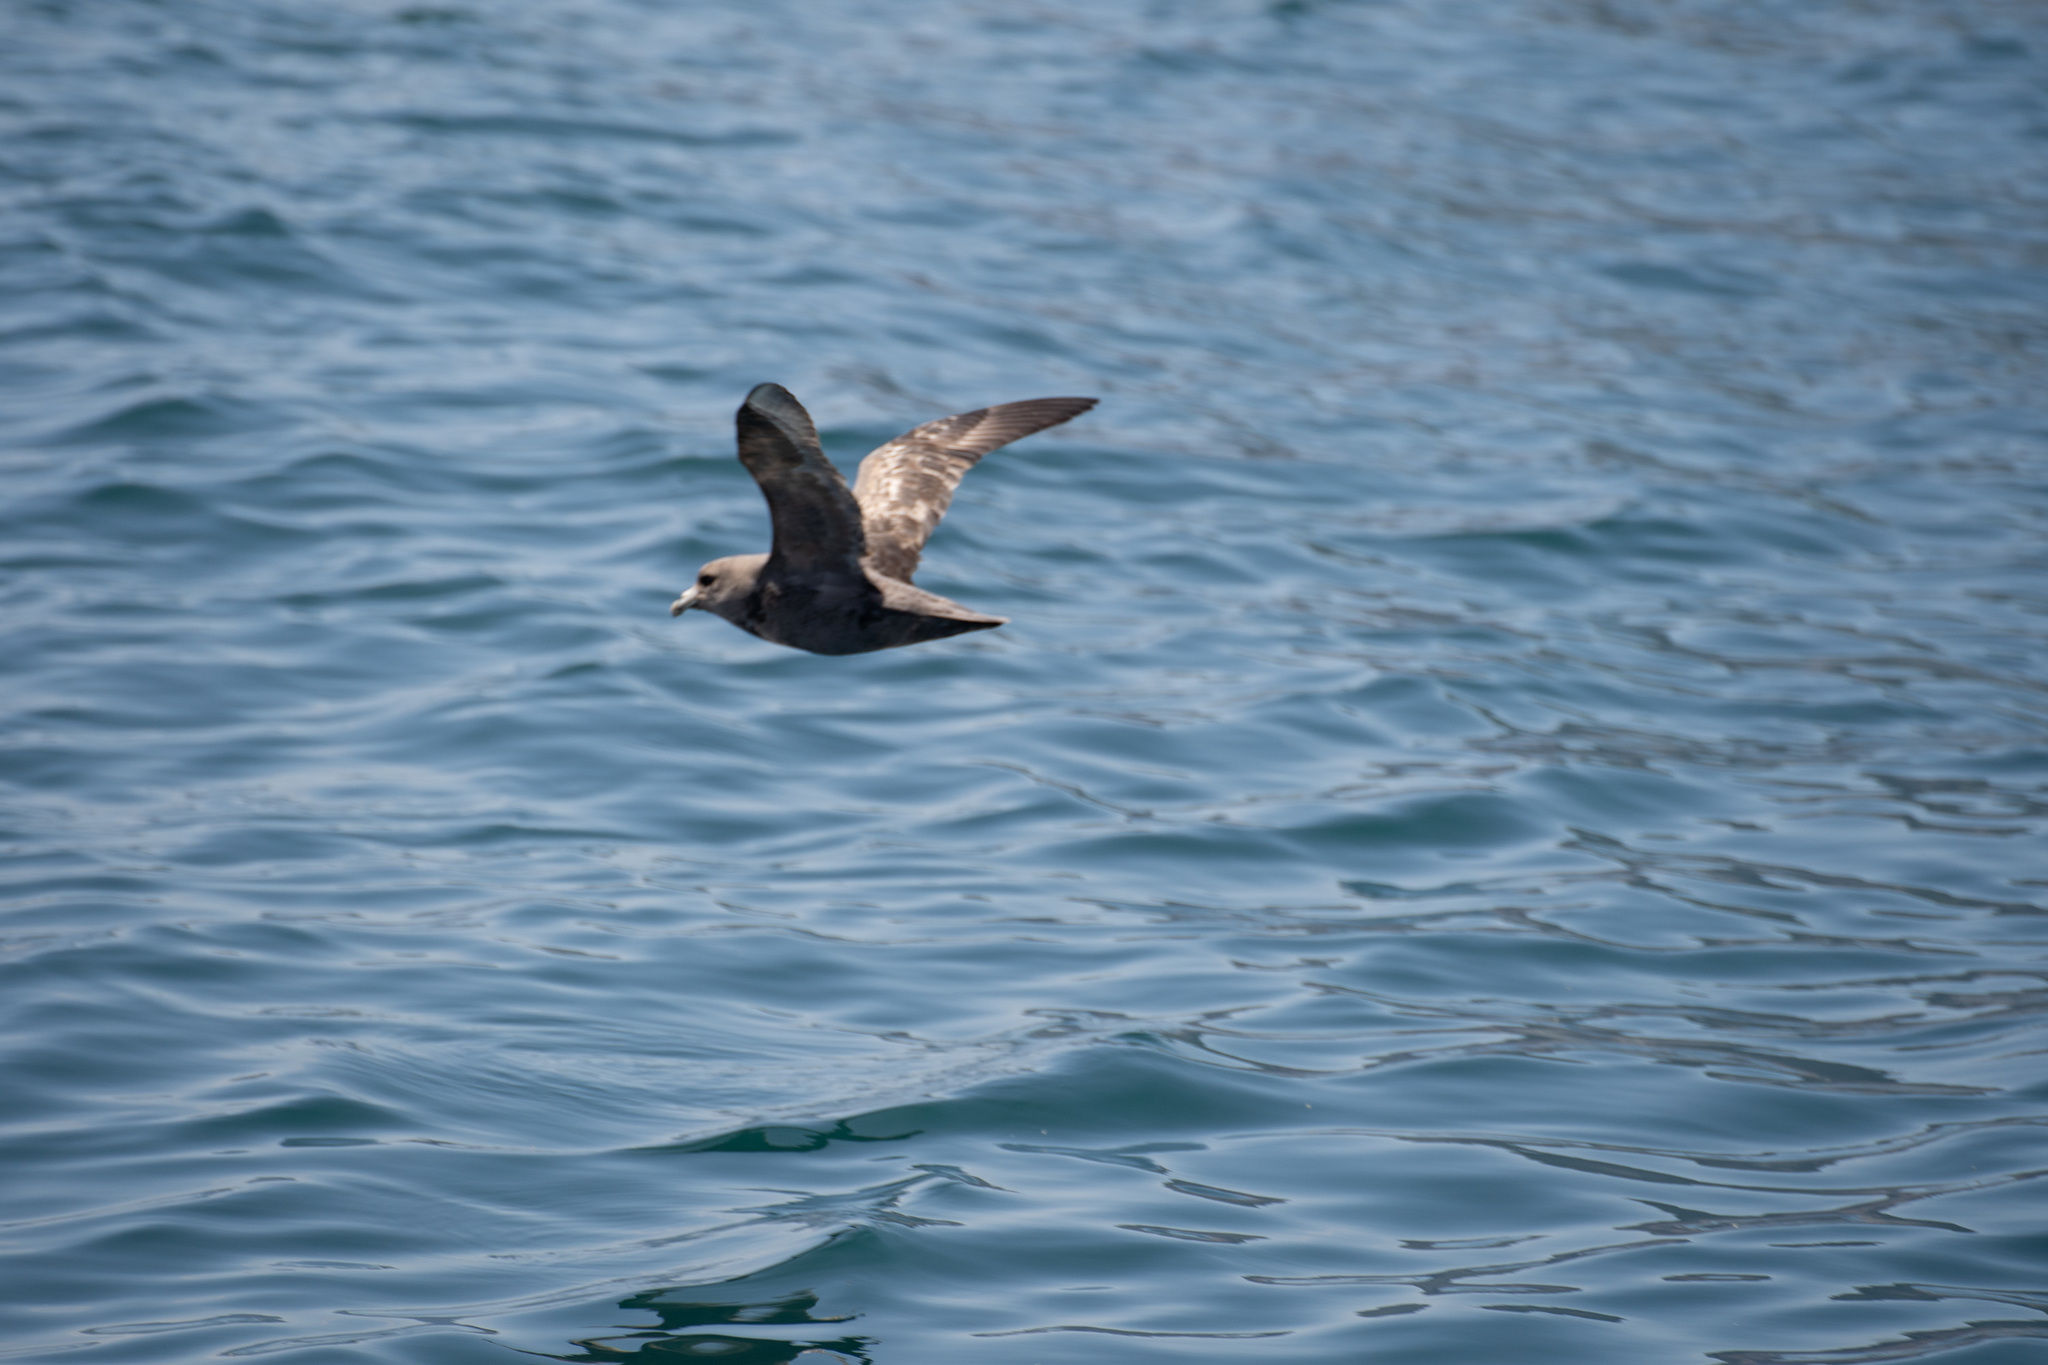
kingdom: Animalia
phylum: Chordata
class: Aves
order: Procellariiformes
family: Procellariidae
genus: Fulmarus
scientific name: Fulmarus glacialis
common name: Northern fulmar
